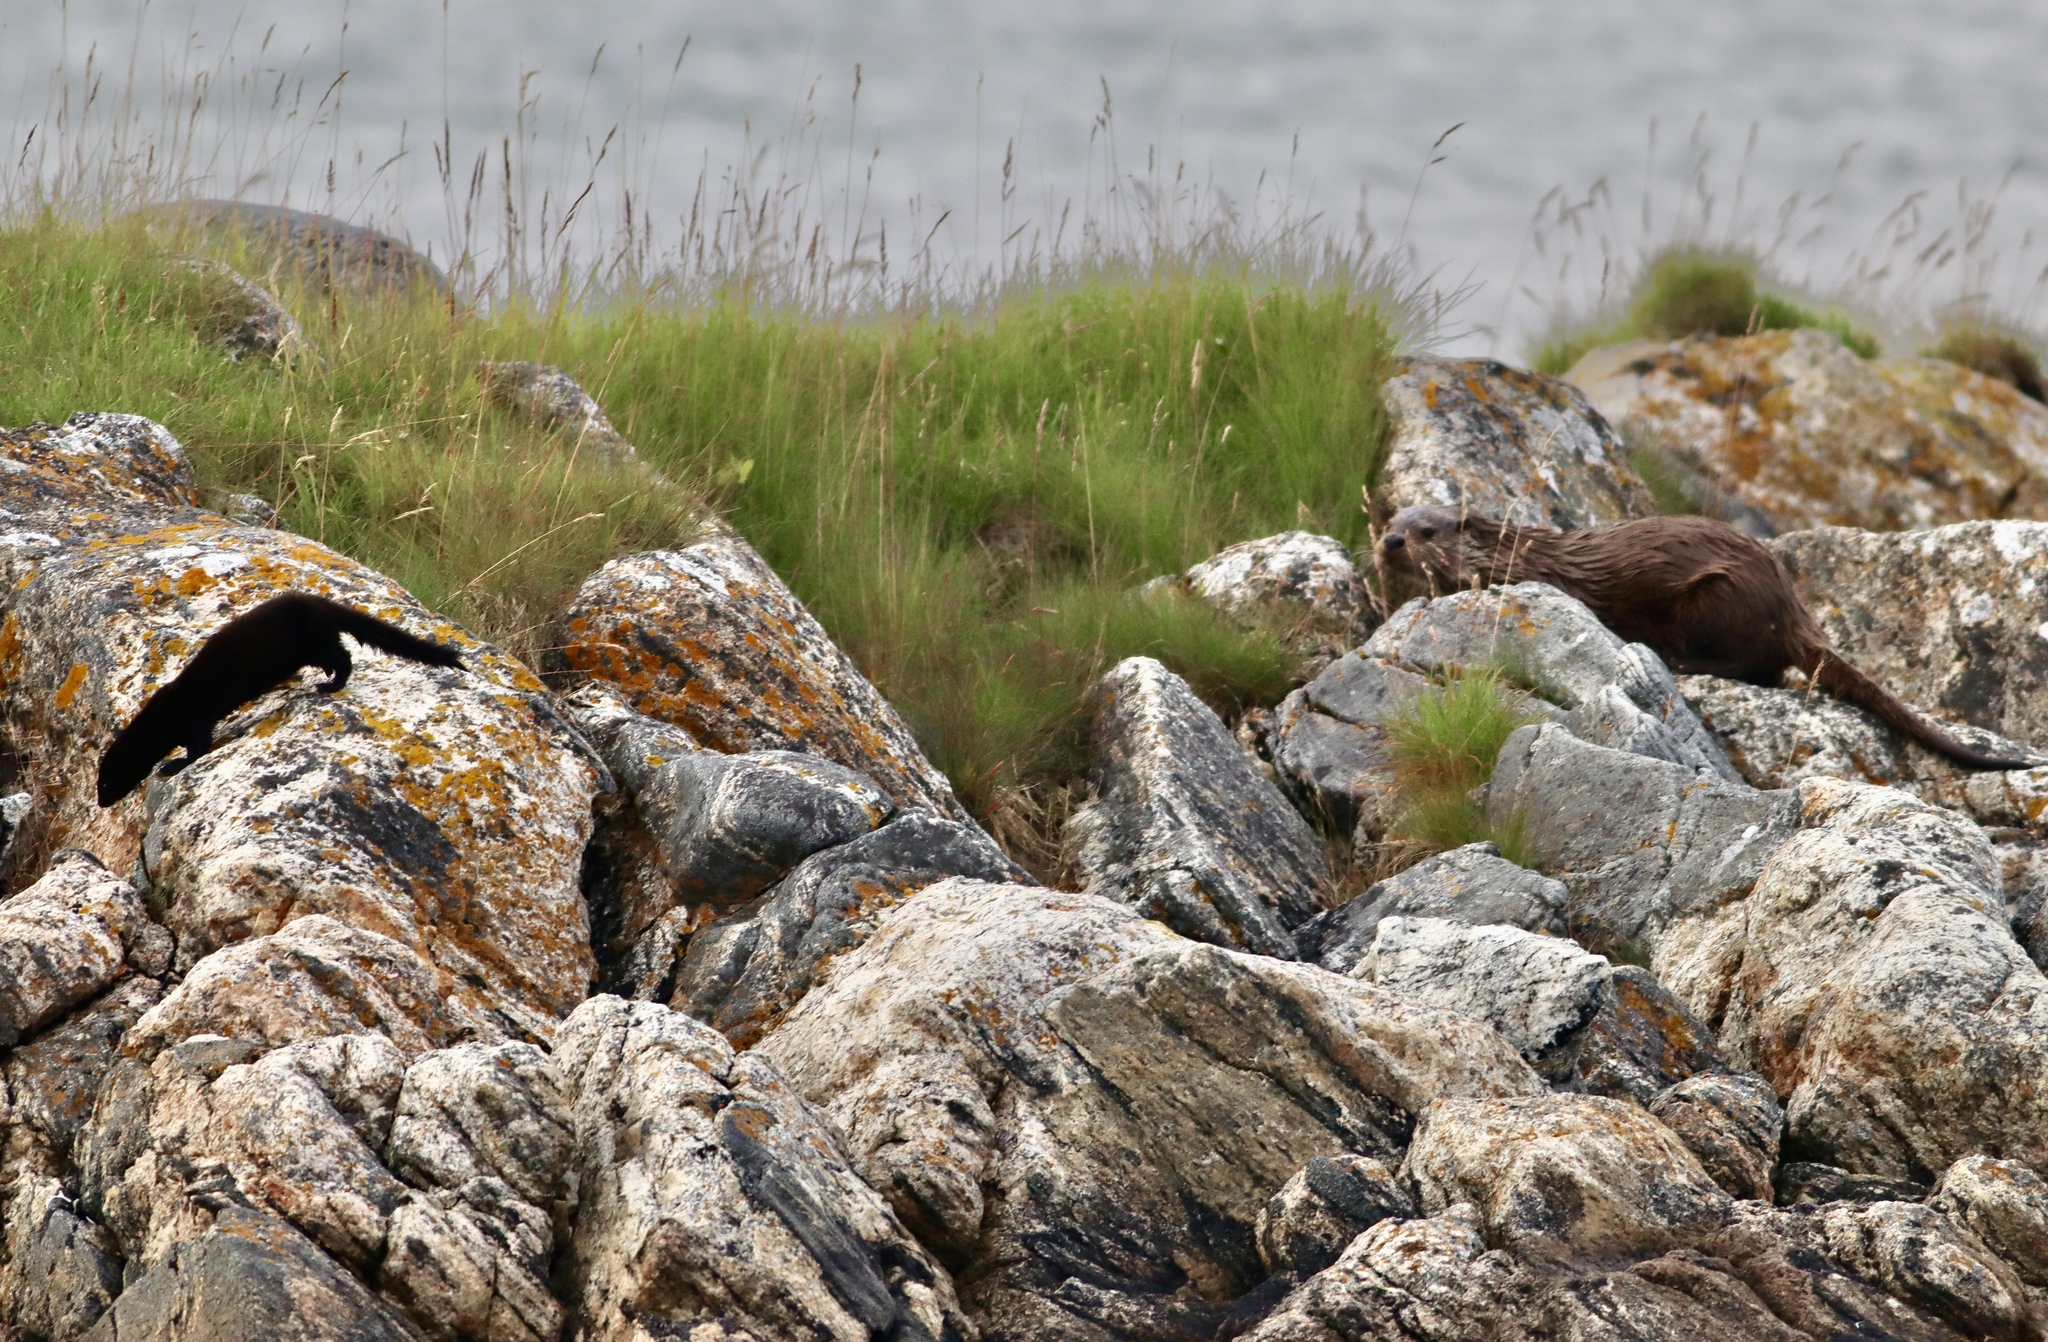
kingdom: Animalia
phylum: Chordata
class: Mammalia
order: Carnivora
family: Mustelidae
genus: Mustela
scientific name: Mustela
